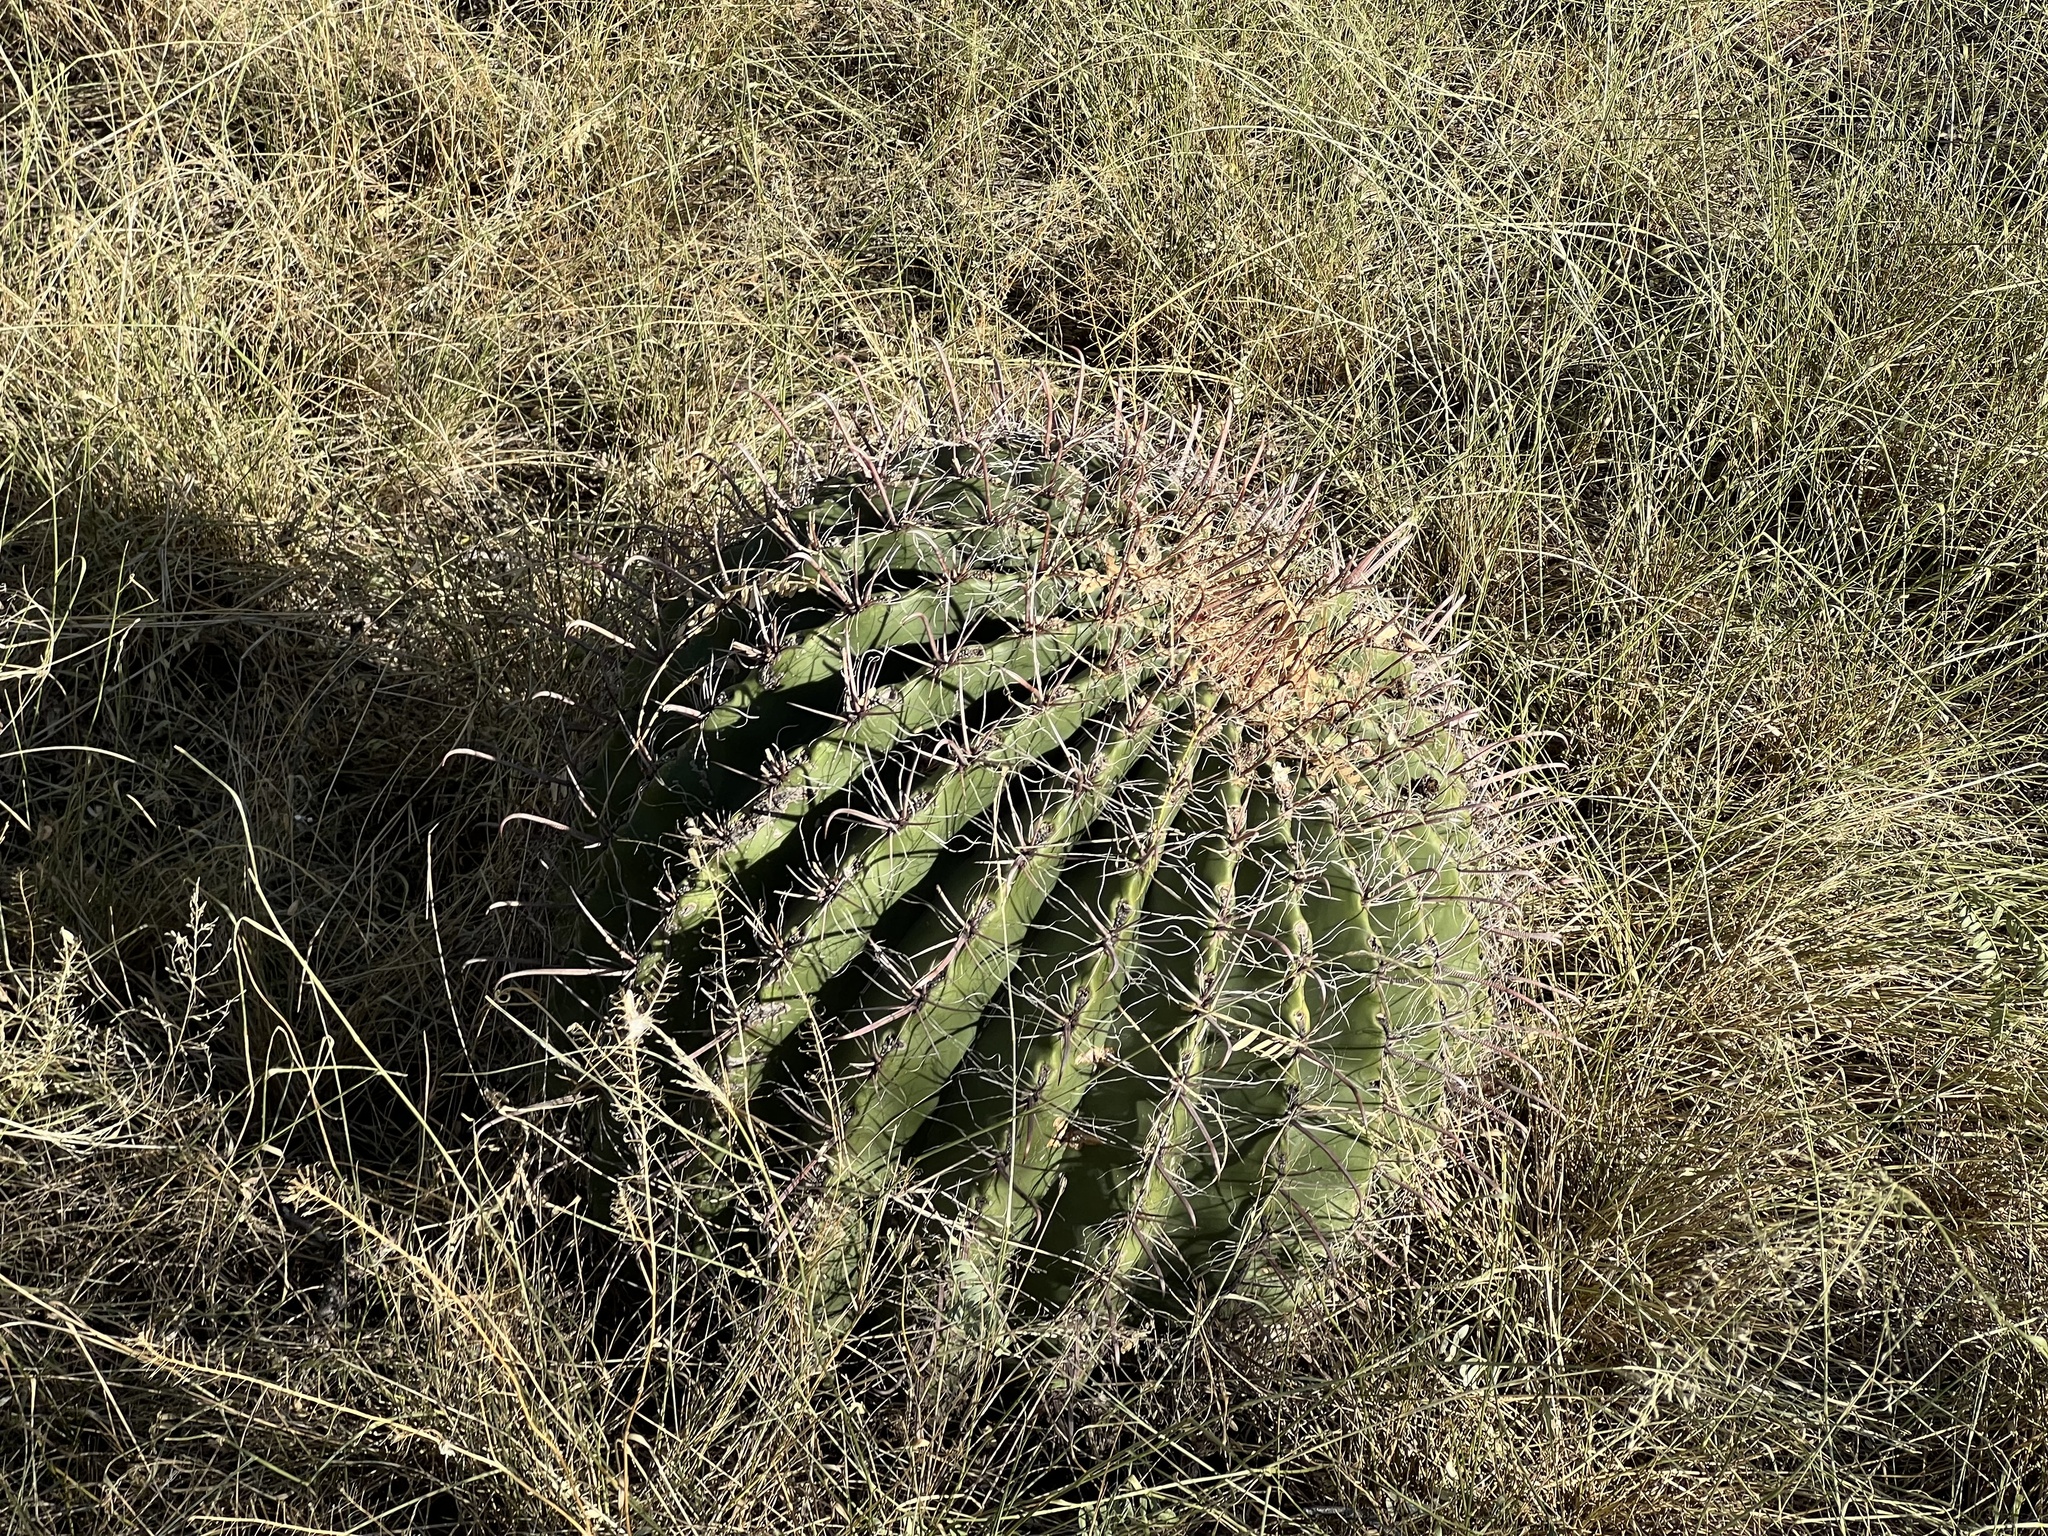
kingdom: Plantae
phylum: Tracheophyta
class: Magnoliopsida
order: Caryophyllales
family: Cactaceae
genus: Ferocactus
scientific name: Ferocactus wislizeni
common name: Candy barrel cactus
